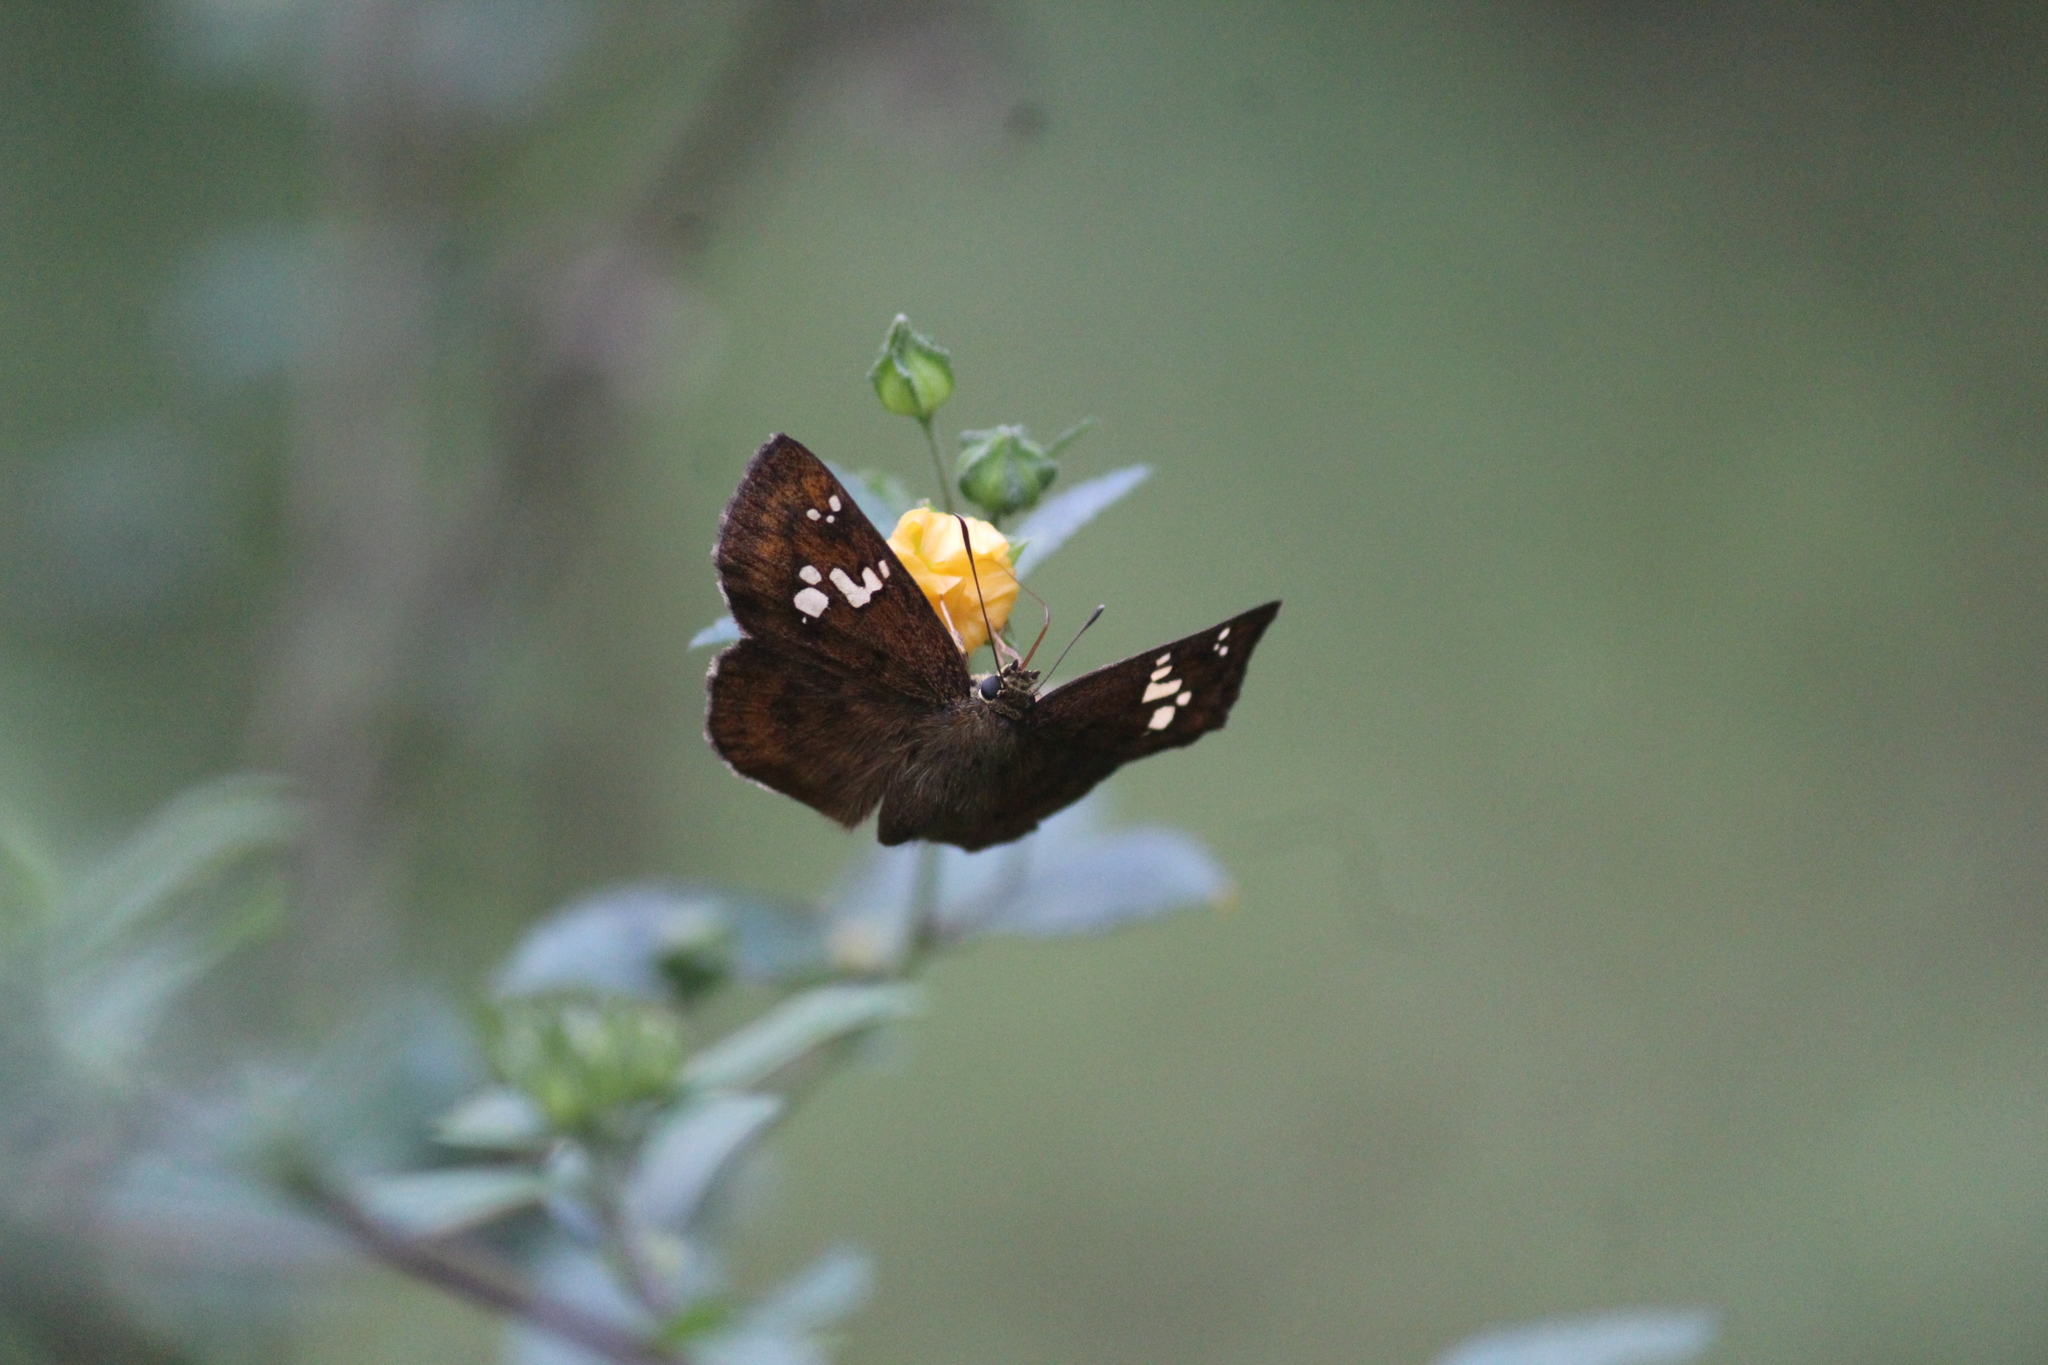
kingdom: Animalia
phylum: Arthropoda
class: Insecta
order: Lepidoptera
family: Hesperiidae
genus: Pseudocoladenia
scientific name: Pseudocoladenia dan
